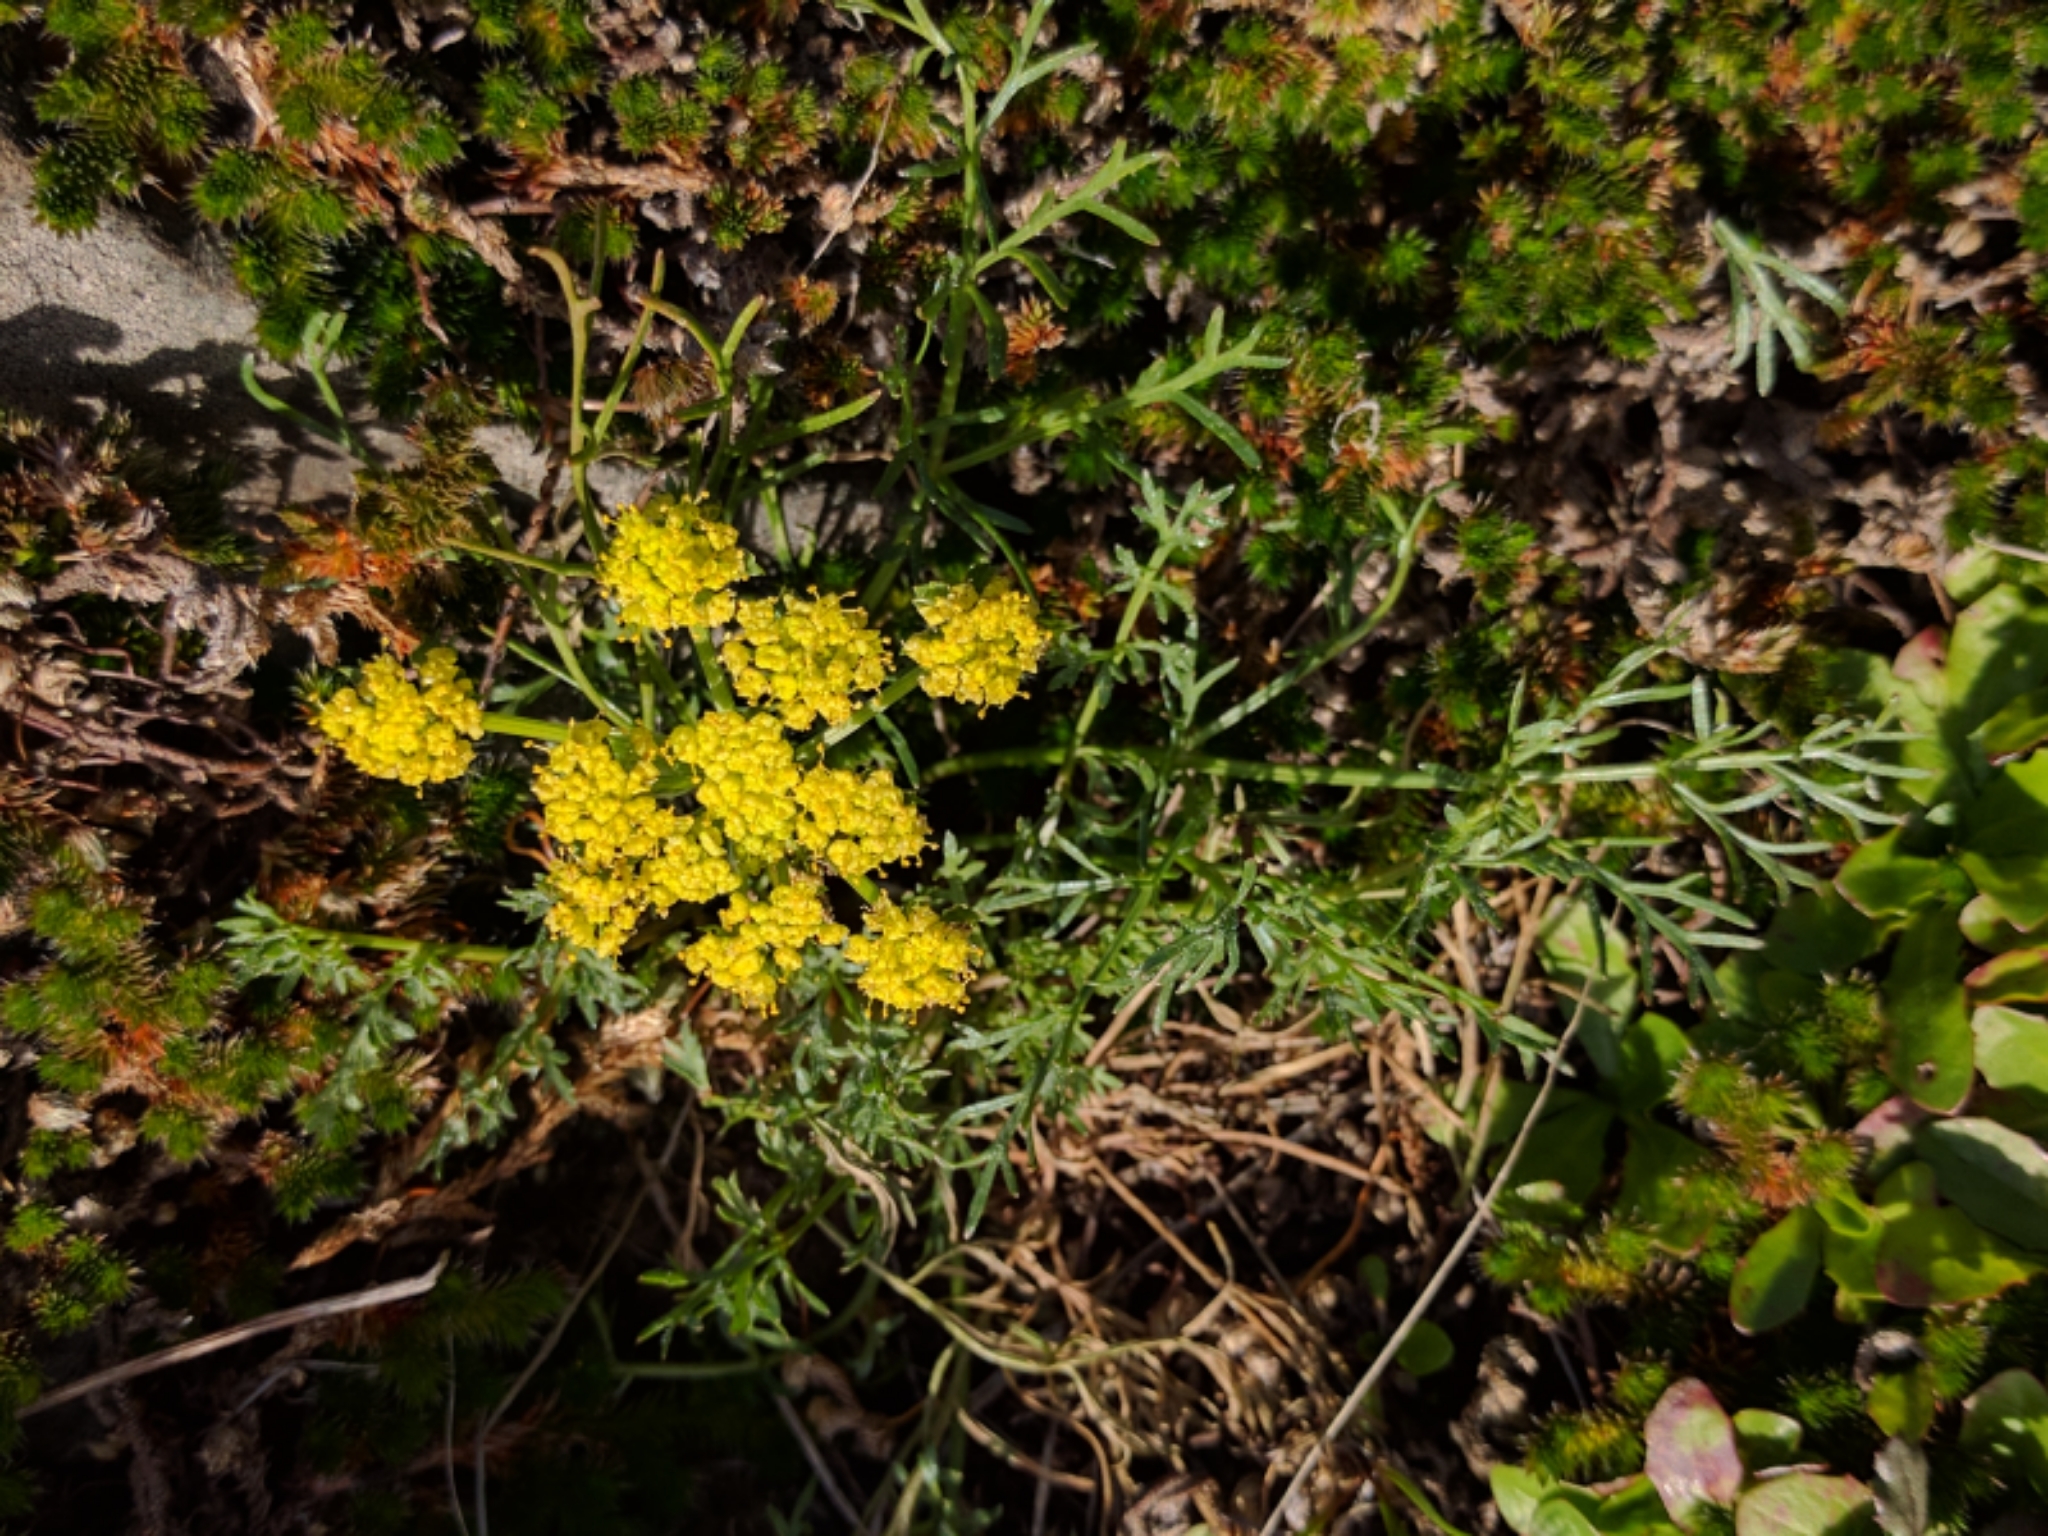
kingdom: Plantae
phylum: Tracheophyta
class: Magnoliopsida
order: Apiales
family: Apiaceae
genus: Lomatium
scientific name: Lomatium utriculatum
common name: Fine-leaf desert-parsley
